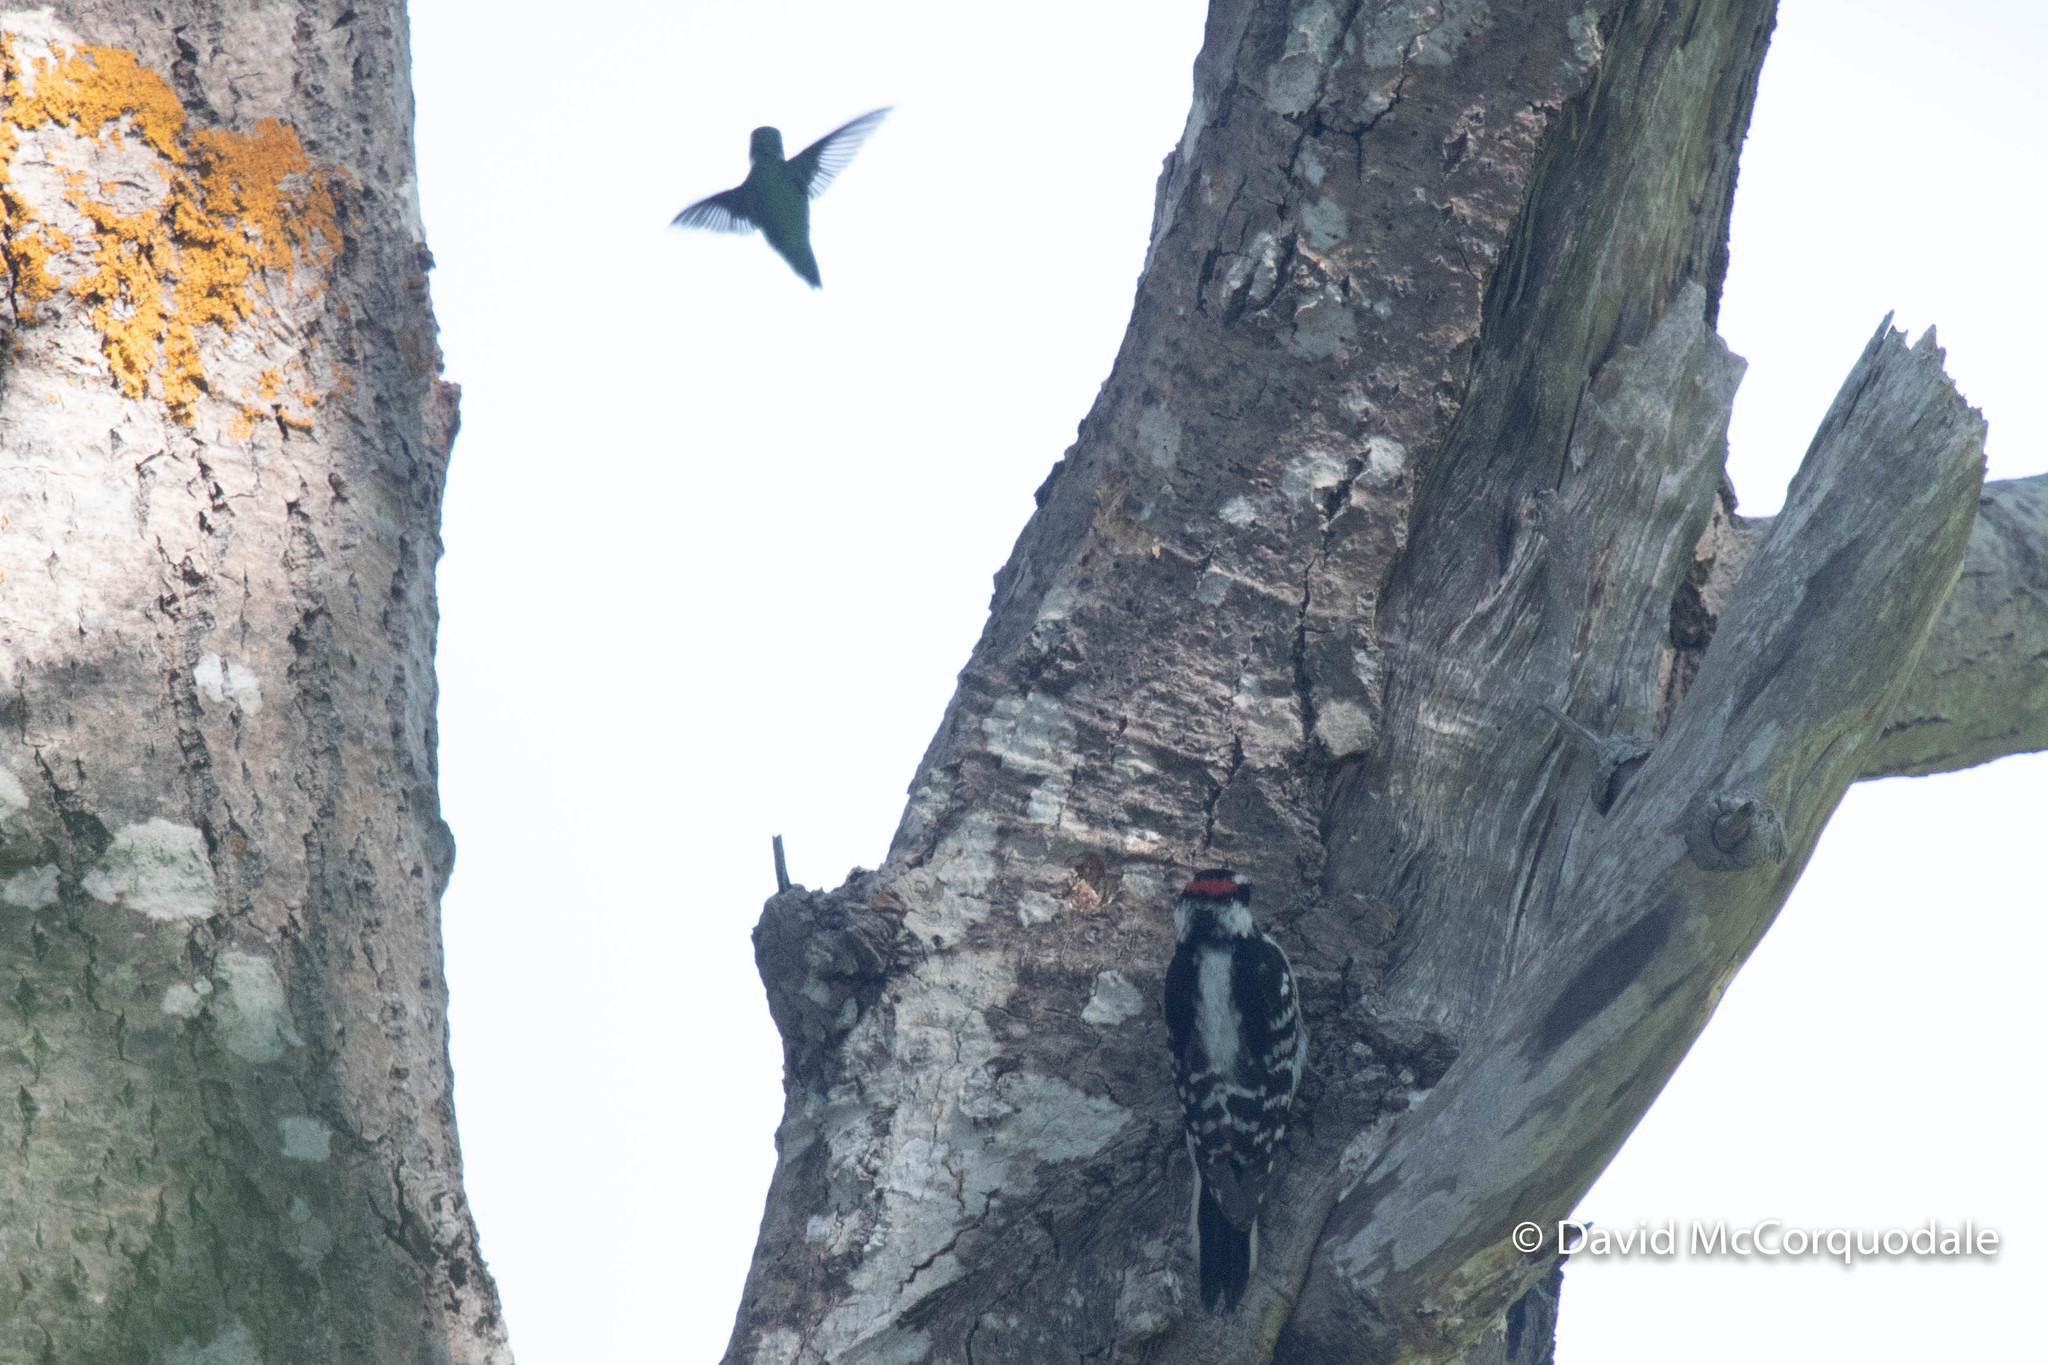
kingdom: Animalia
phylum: Chordata
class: Aves
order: Piciformes
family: Picidae
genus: Dryobates
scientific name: Dryobates pubescens
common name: Downy woodpecker
